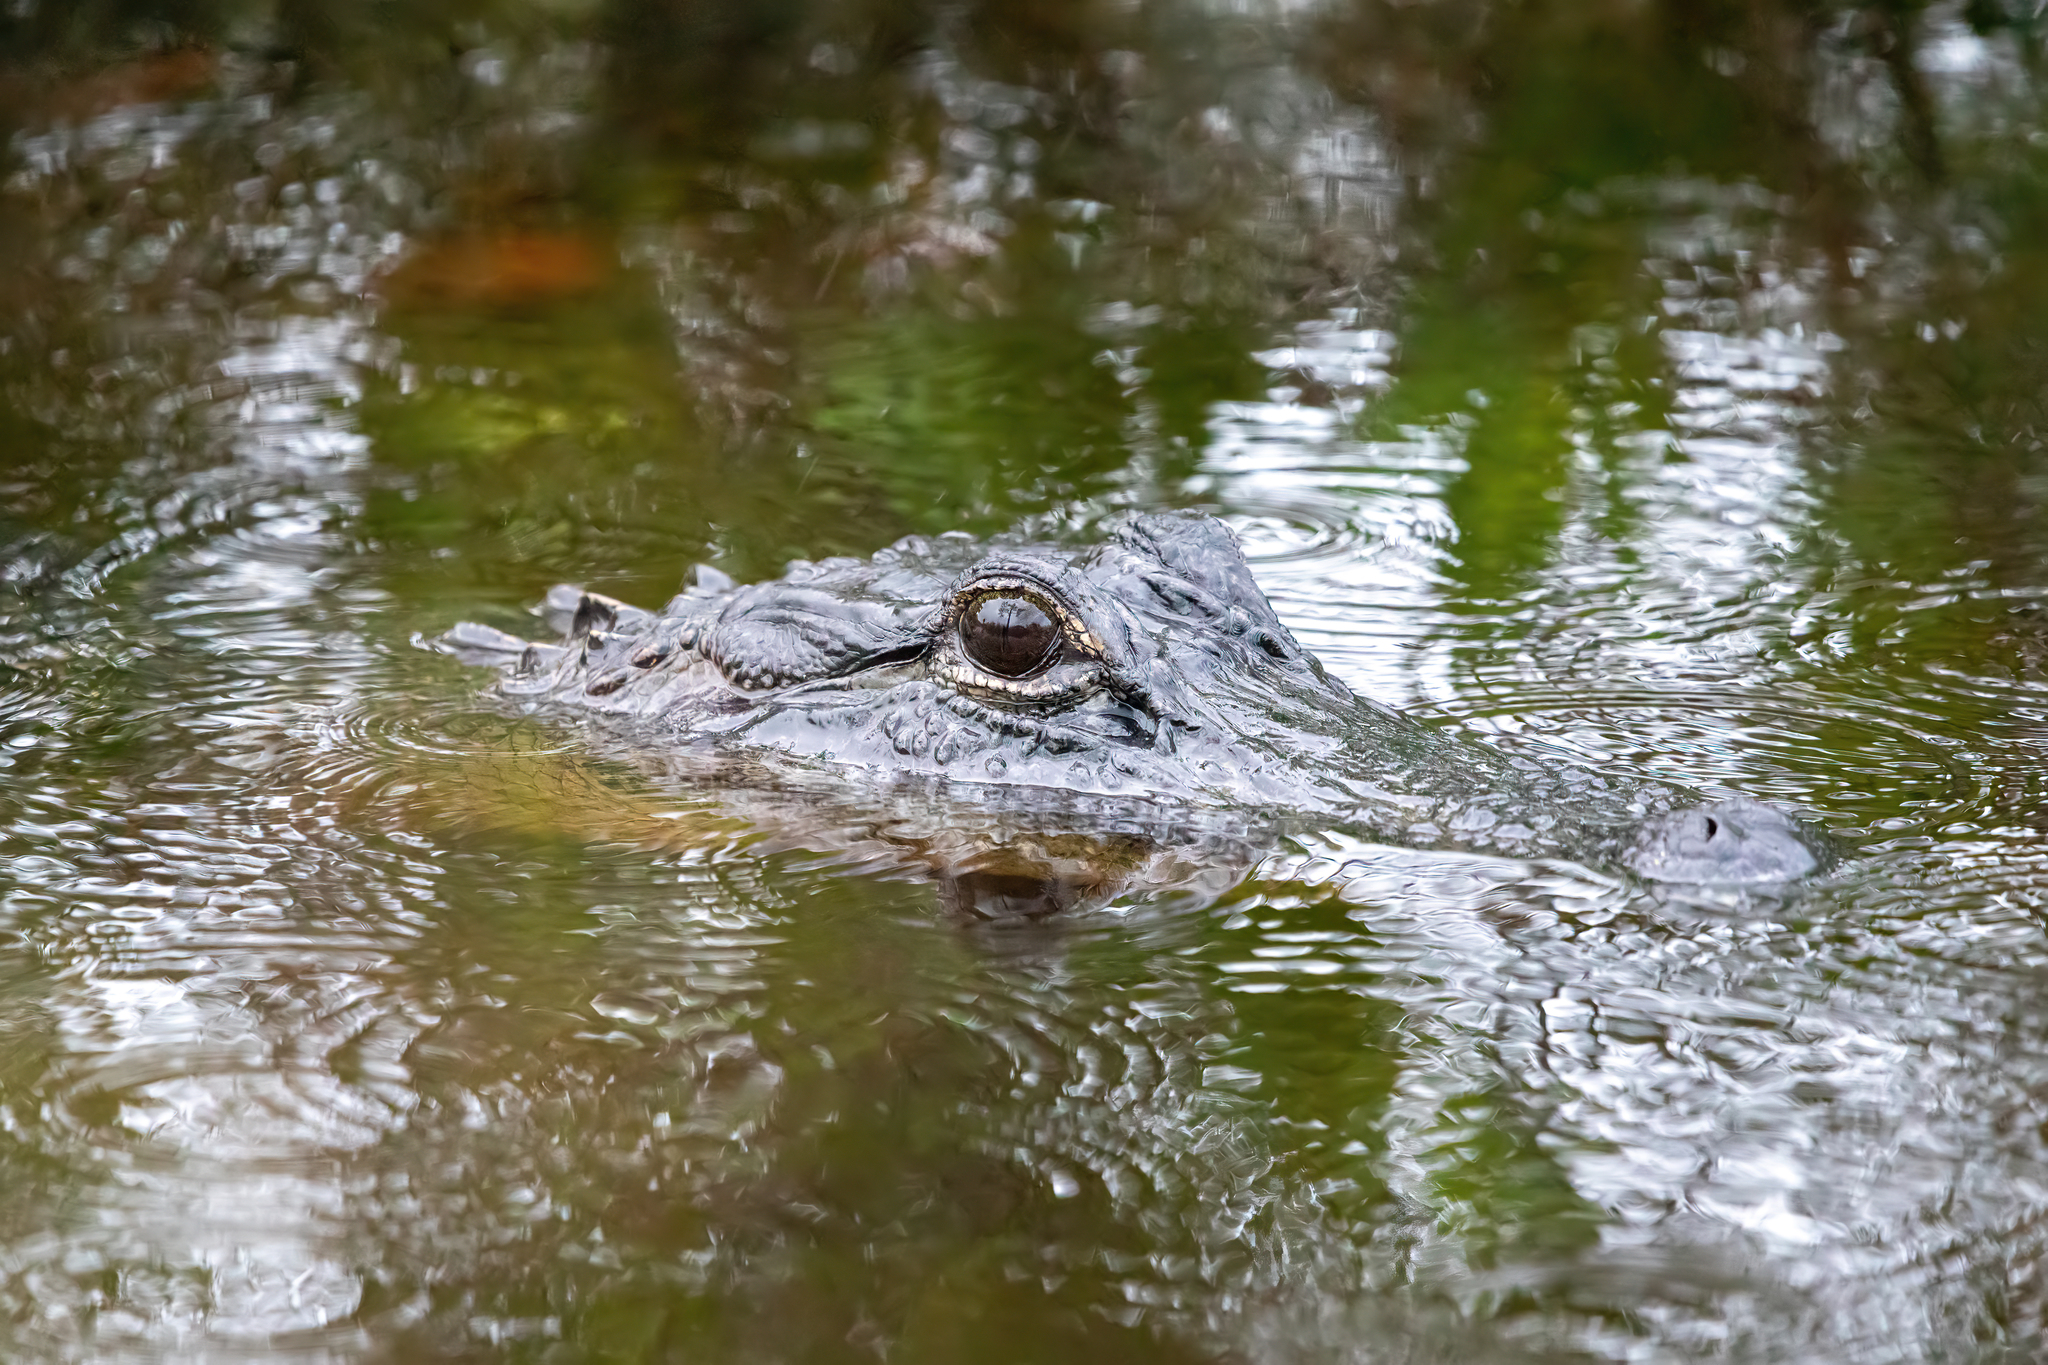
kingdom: Animalia
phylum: Chordata
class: Crocodylia
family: Alligatoridae
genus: Alligator
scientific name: Alligator mississippiensis
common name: American alligator
